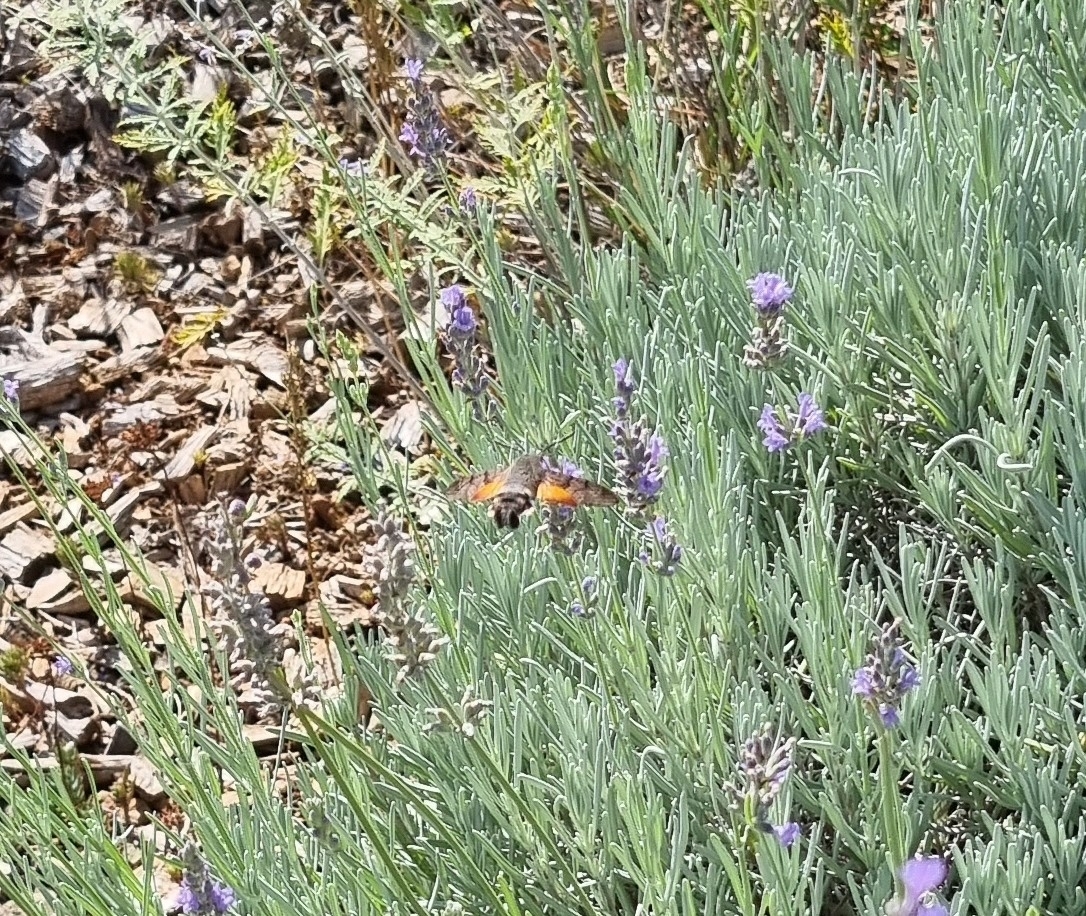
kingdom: Animalia
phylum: Arthropoda
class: Insecta
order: Lepidoptera
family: Sphingidae
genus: Macroglossum
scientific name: Macroglossum stellatarum
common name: Humming-bird hawk-moth
